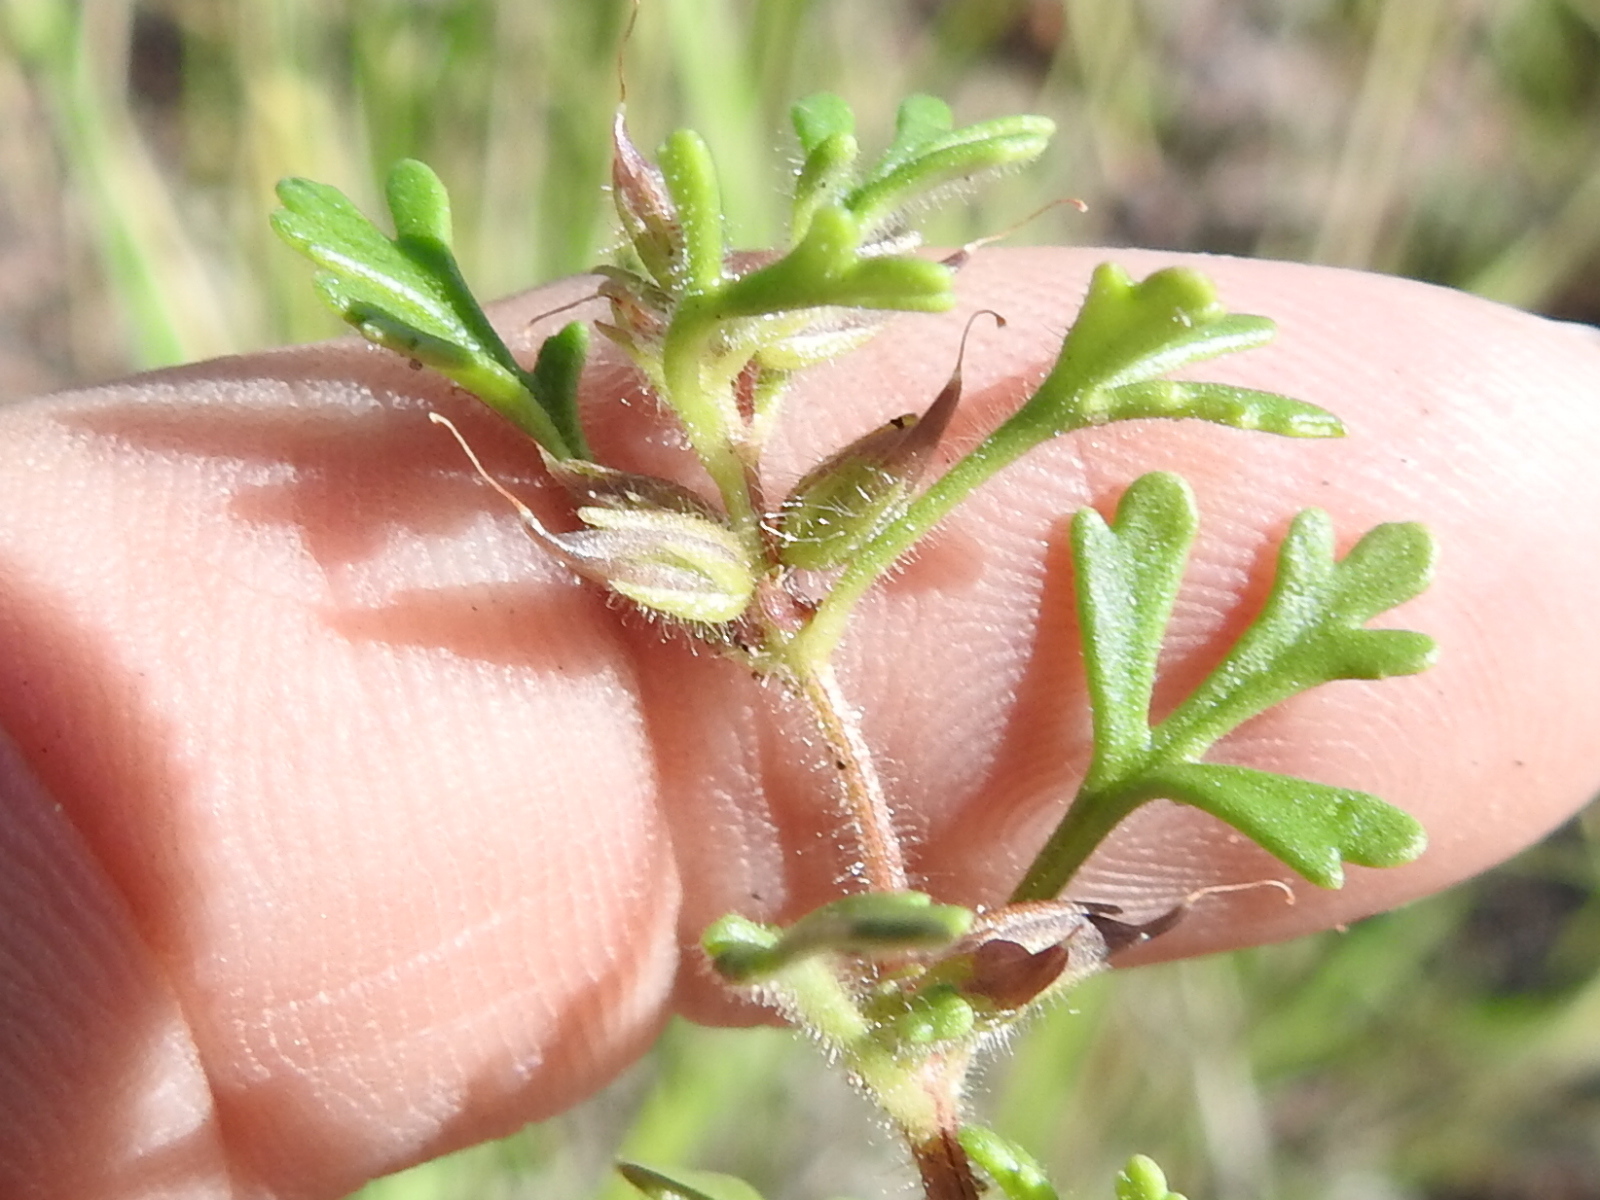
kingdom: Plantae
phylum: Tracheophyta
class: Magnoliopsida
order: Lamiales
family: Plantaginaceae
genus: Schistophragma
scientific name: Schistophragma intermedium
